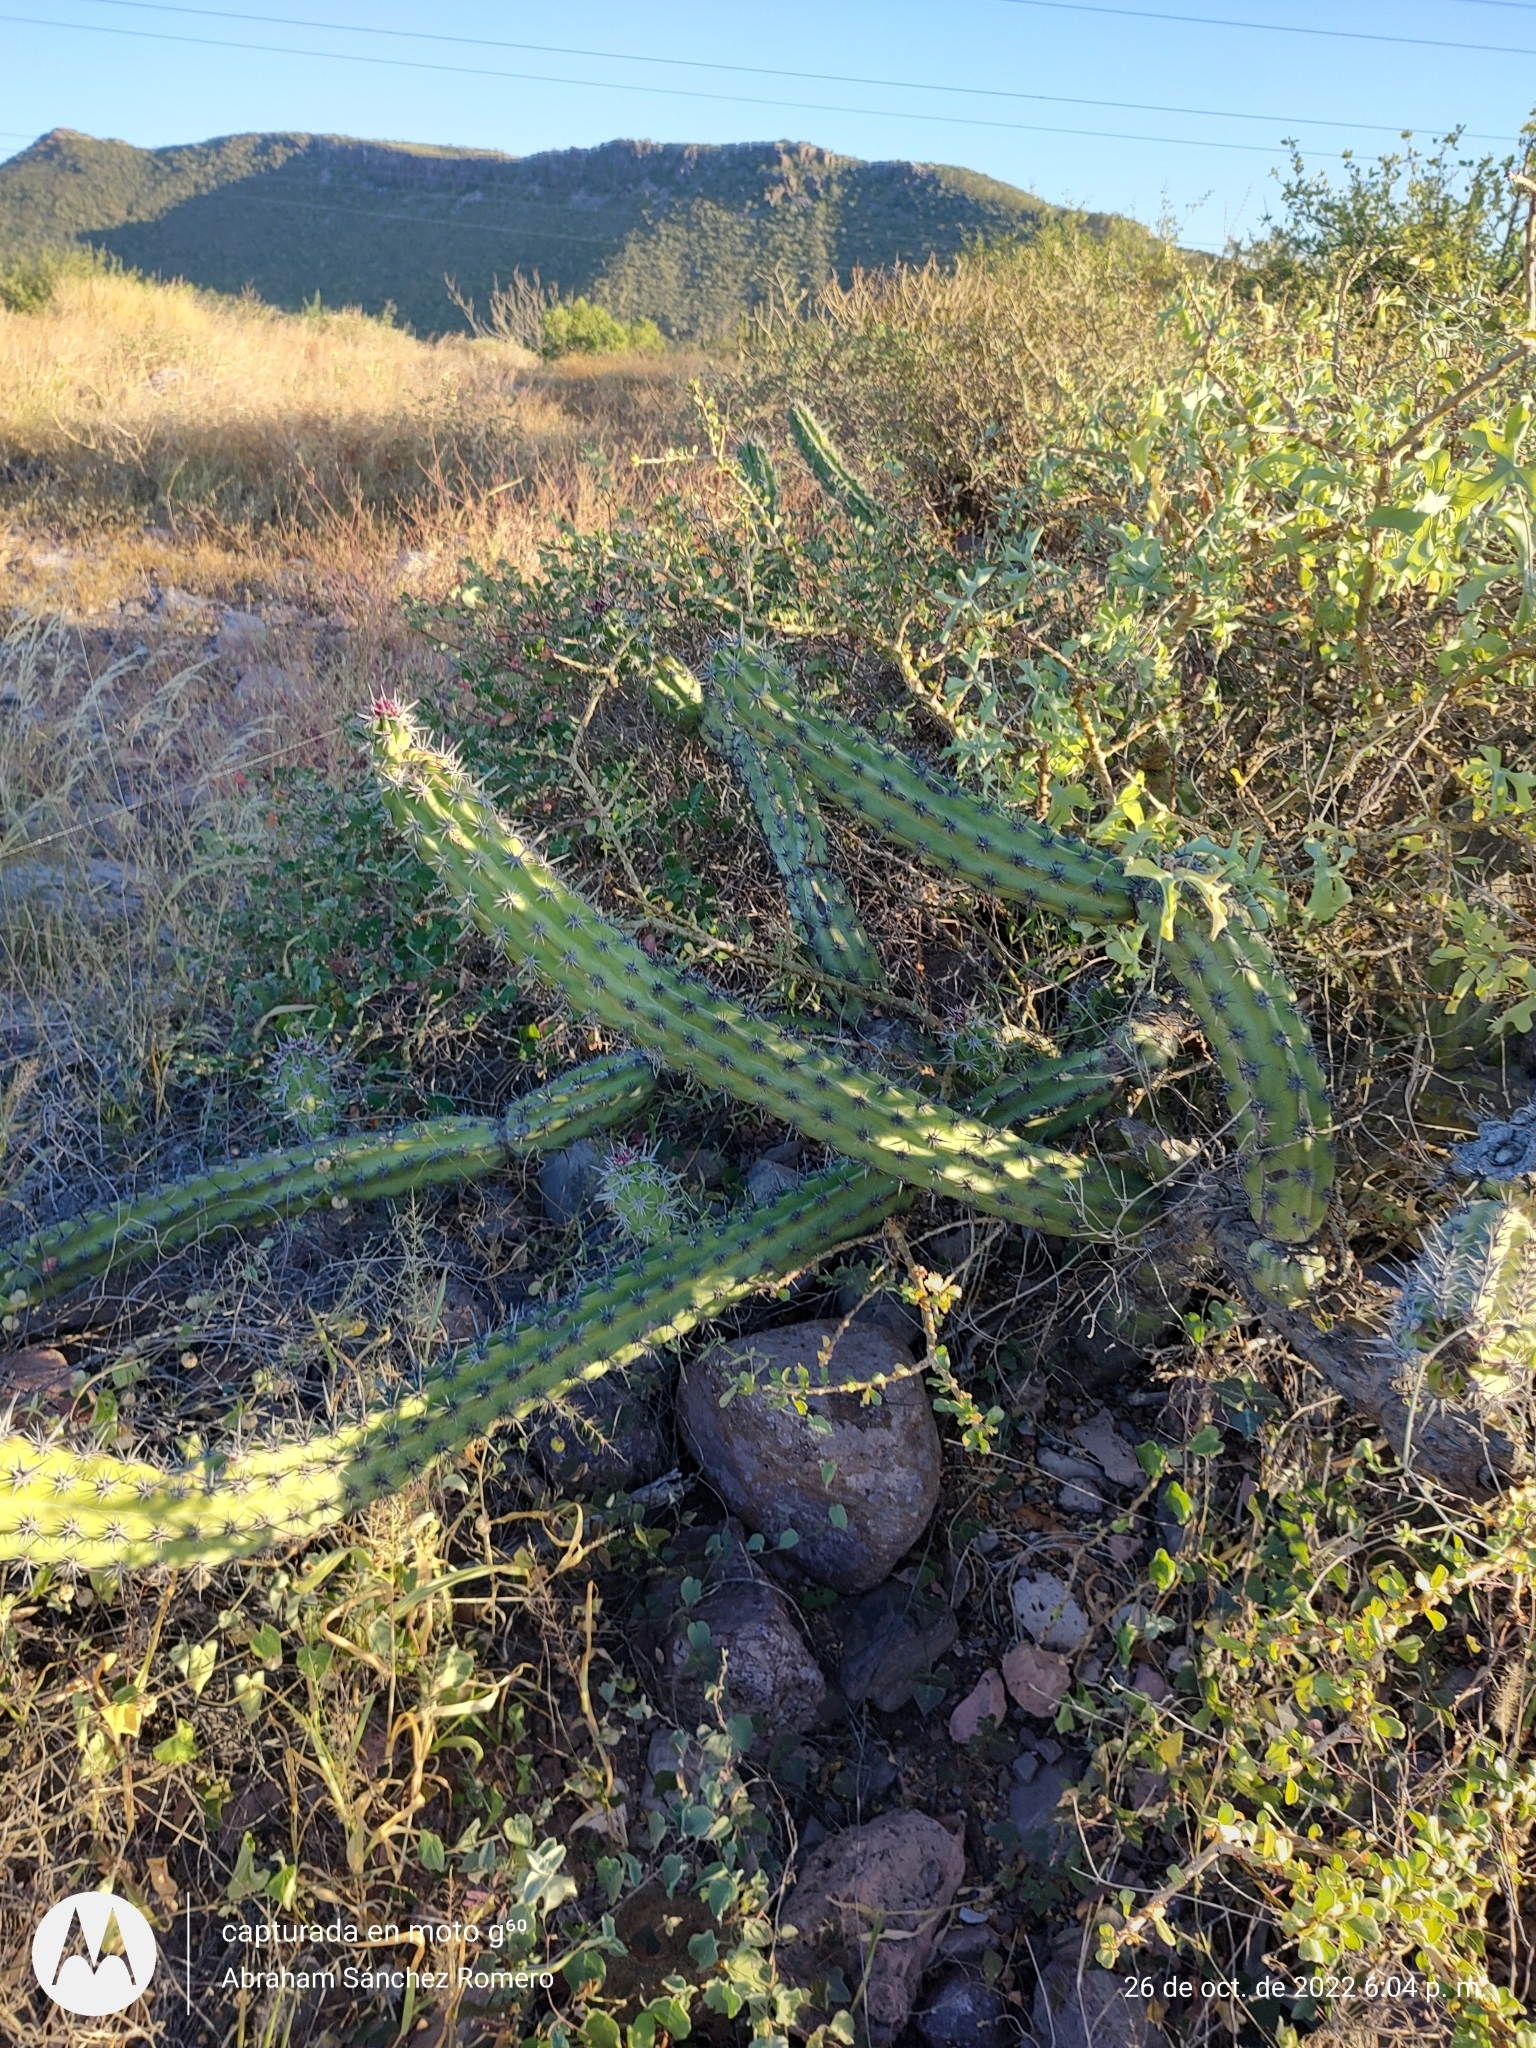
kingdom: Plantae
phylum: Tracheophyta
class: Magnoliopsida
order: Caryophyllales
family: Cactaceae
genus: Stenocereus
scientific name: Stenocereus gummosus
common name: Dagger cactus
